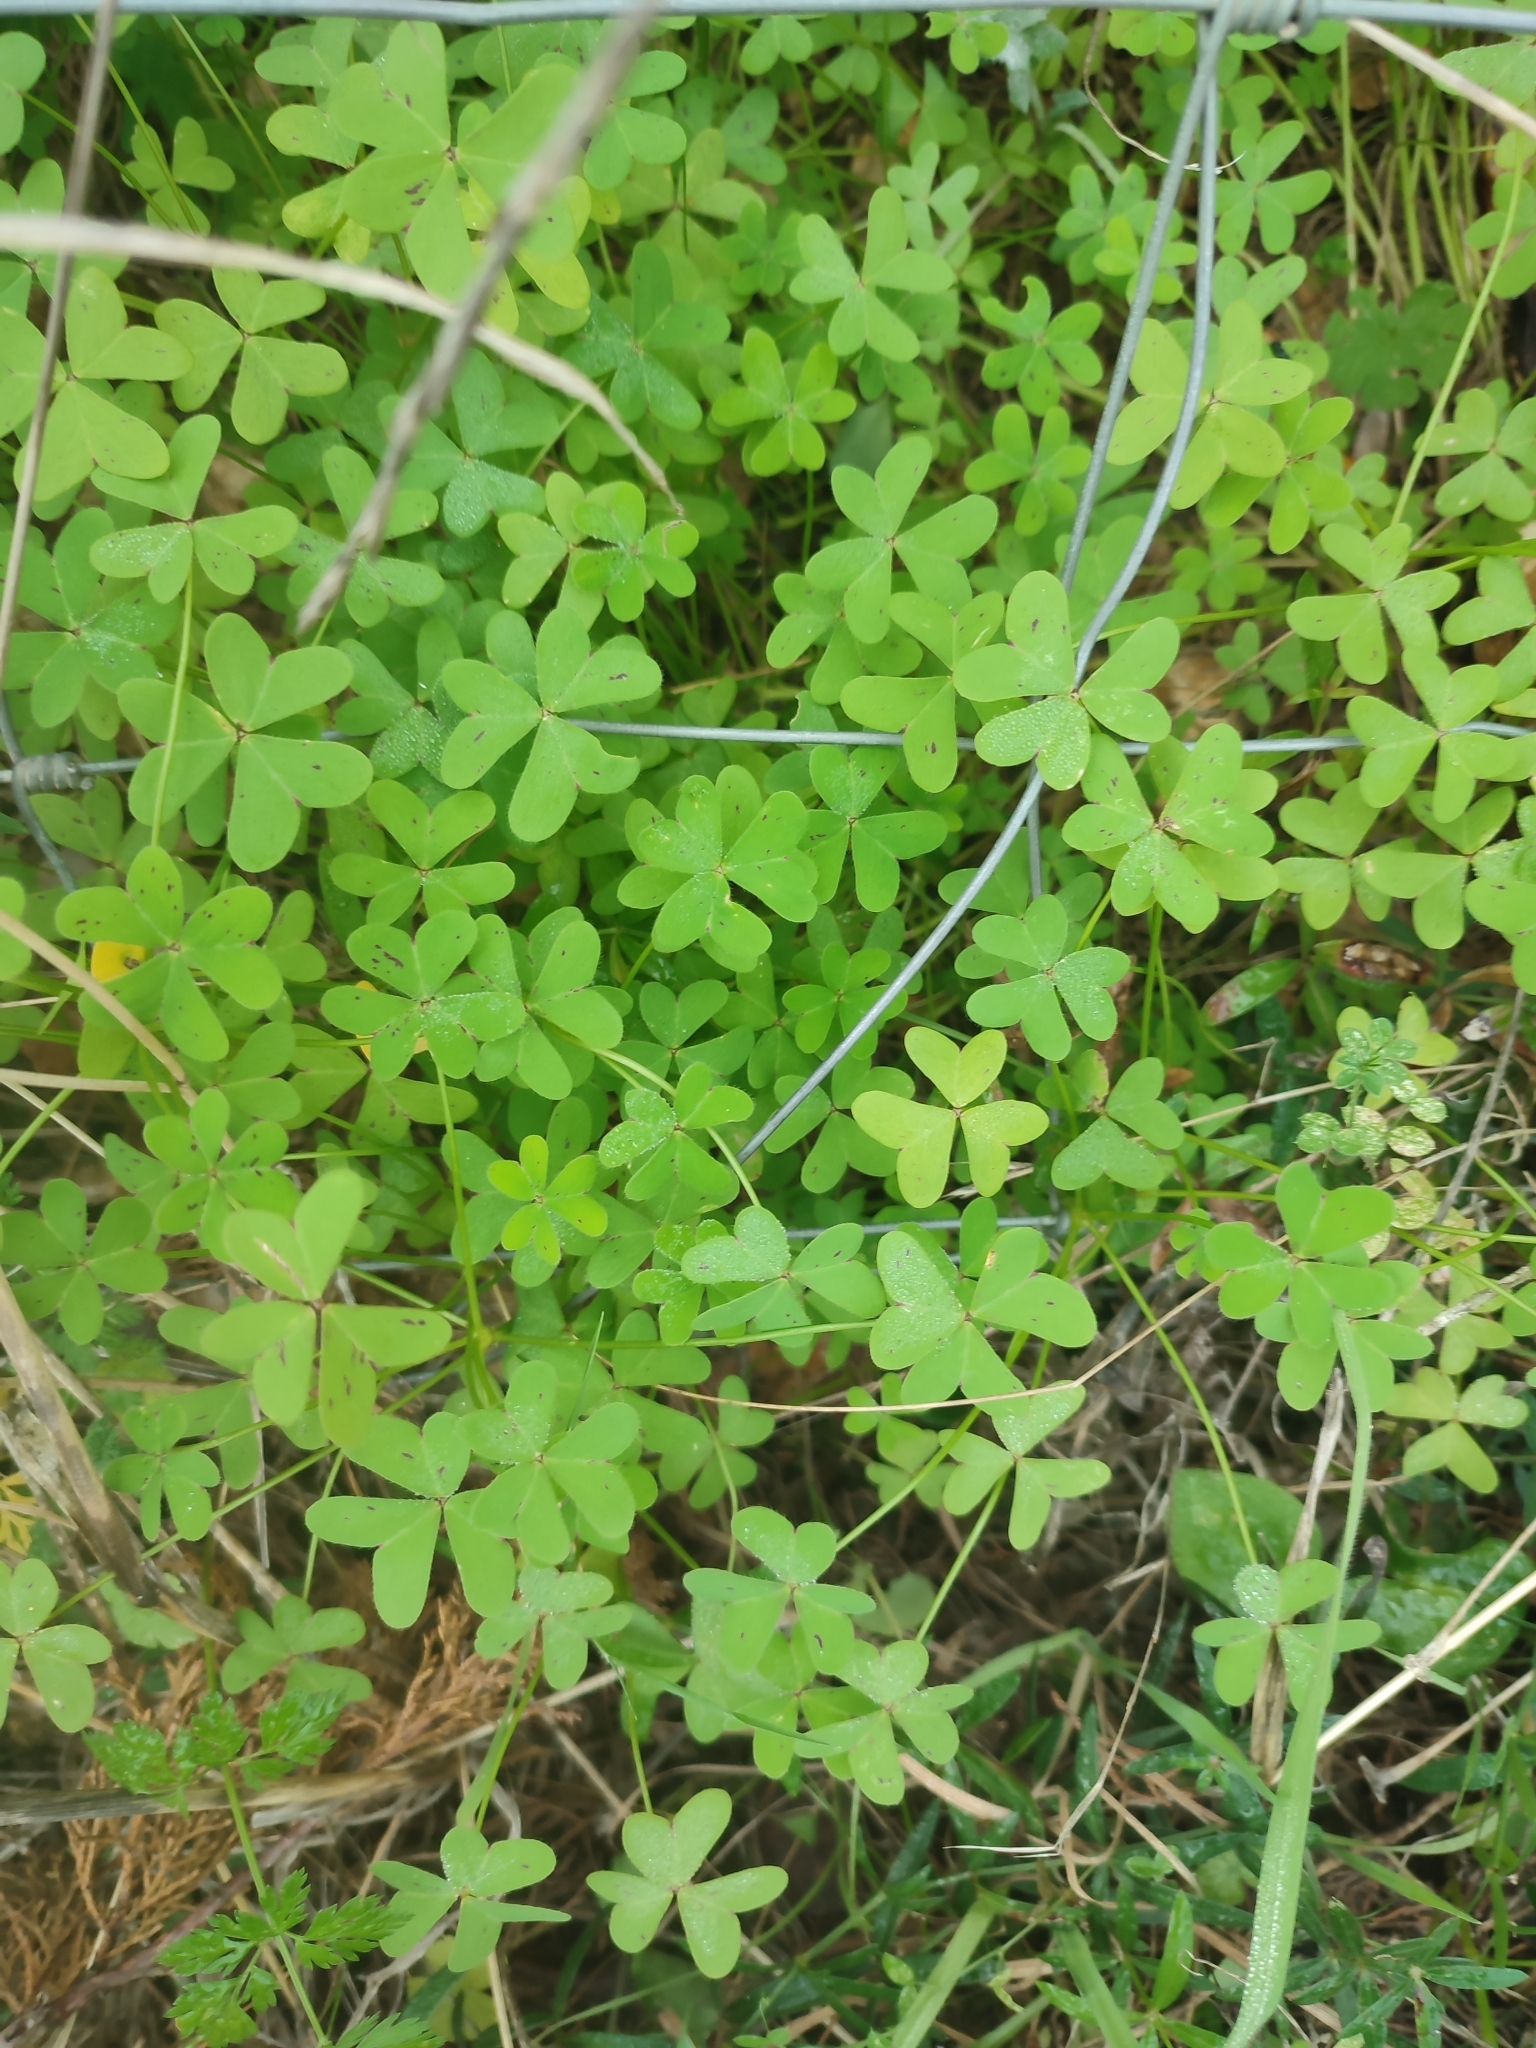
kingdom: Plantae
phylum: Tracheophyta
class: Magnoliopsida
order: Oxalidales
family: Oxalidaceae
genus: Oxalis
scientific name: Oxalis pes-caprae
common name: Bermuda-buttercup
